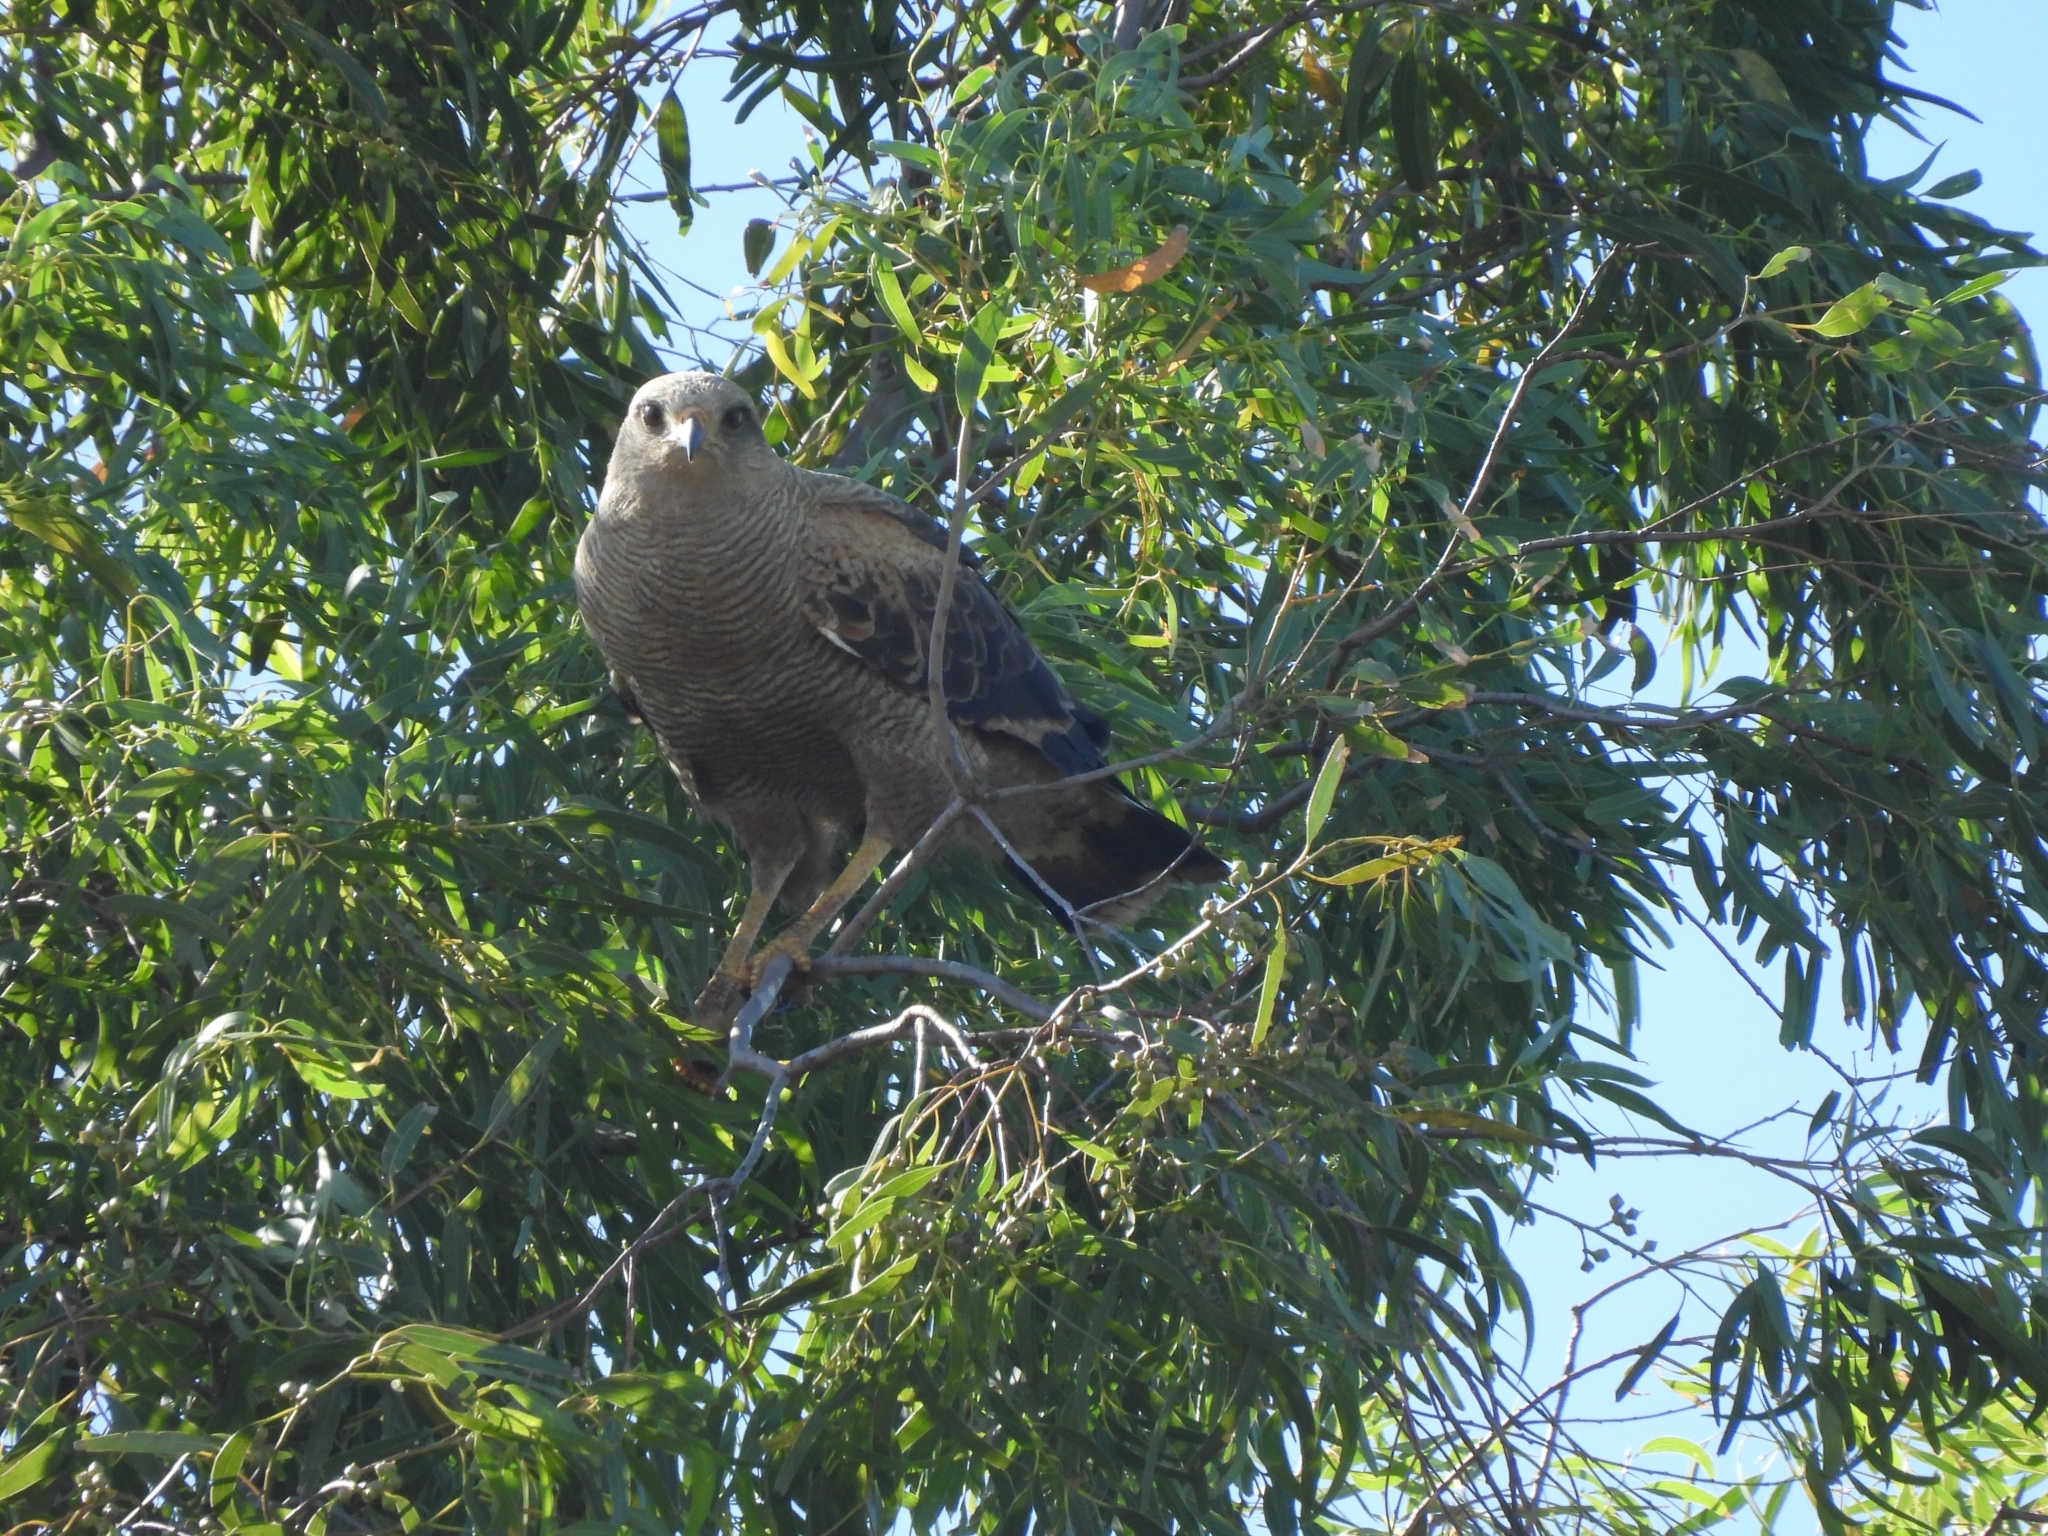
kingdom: Animalia
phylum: Chordata
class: Aves
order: Accipitriformes
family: Accipitridae
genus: Buteogallus
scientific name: Buteogallus meridionalis
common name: Savanna hawk
